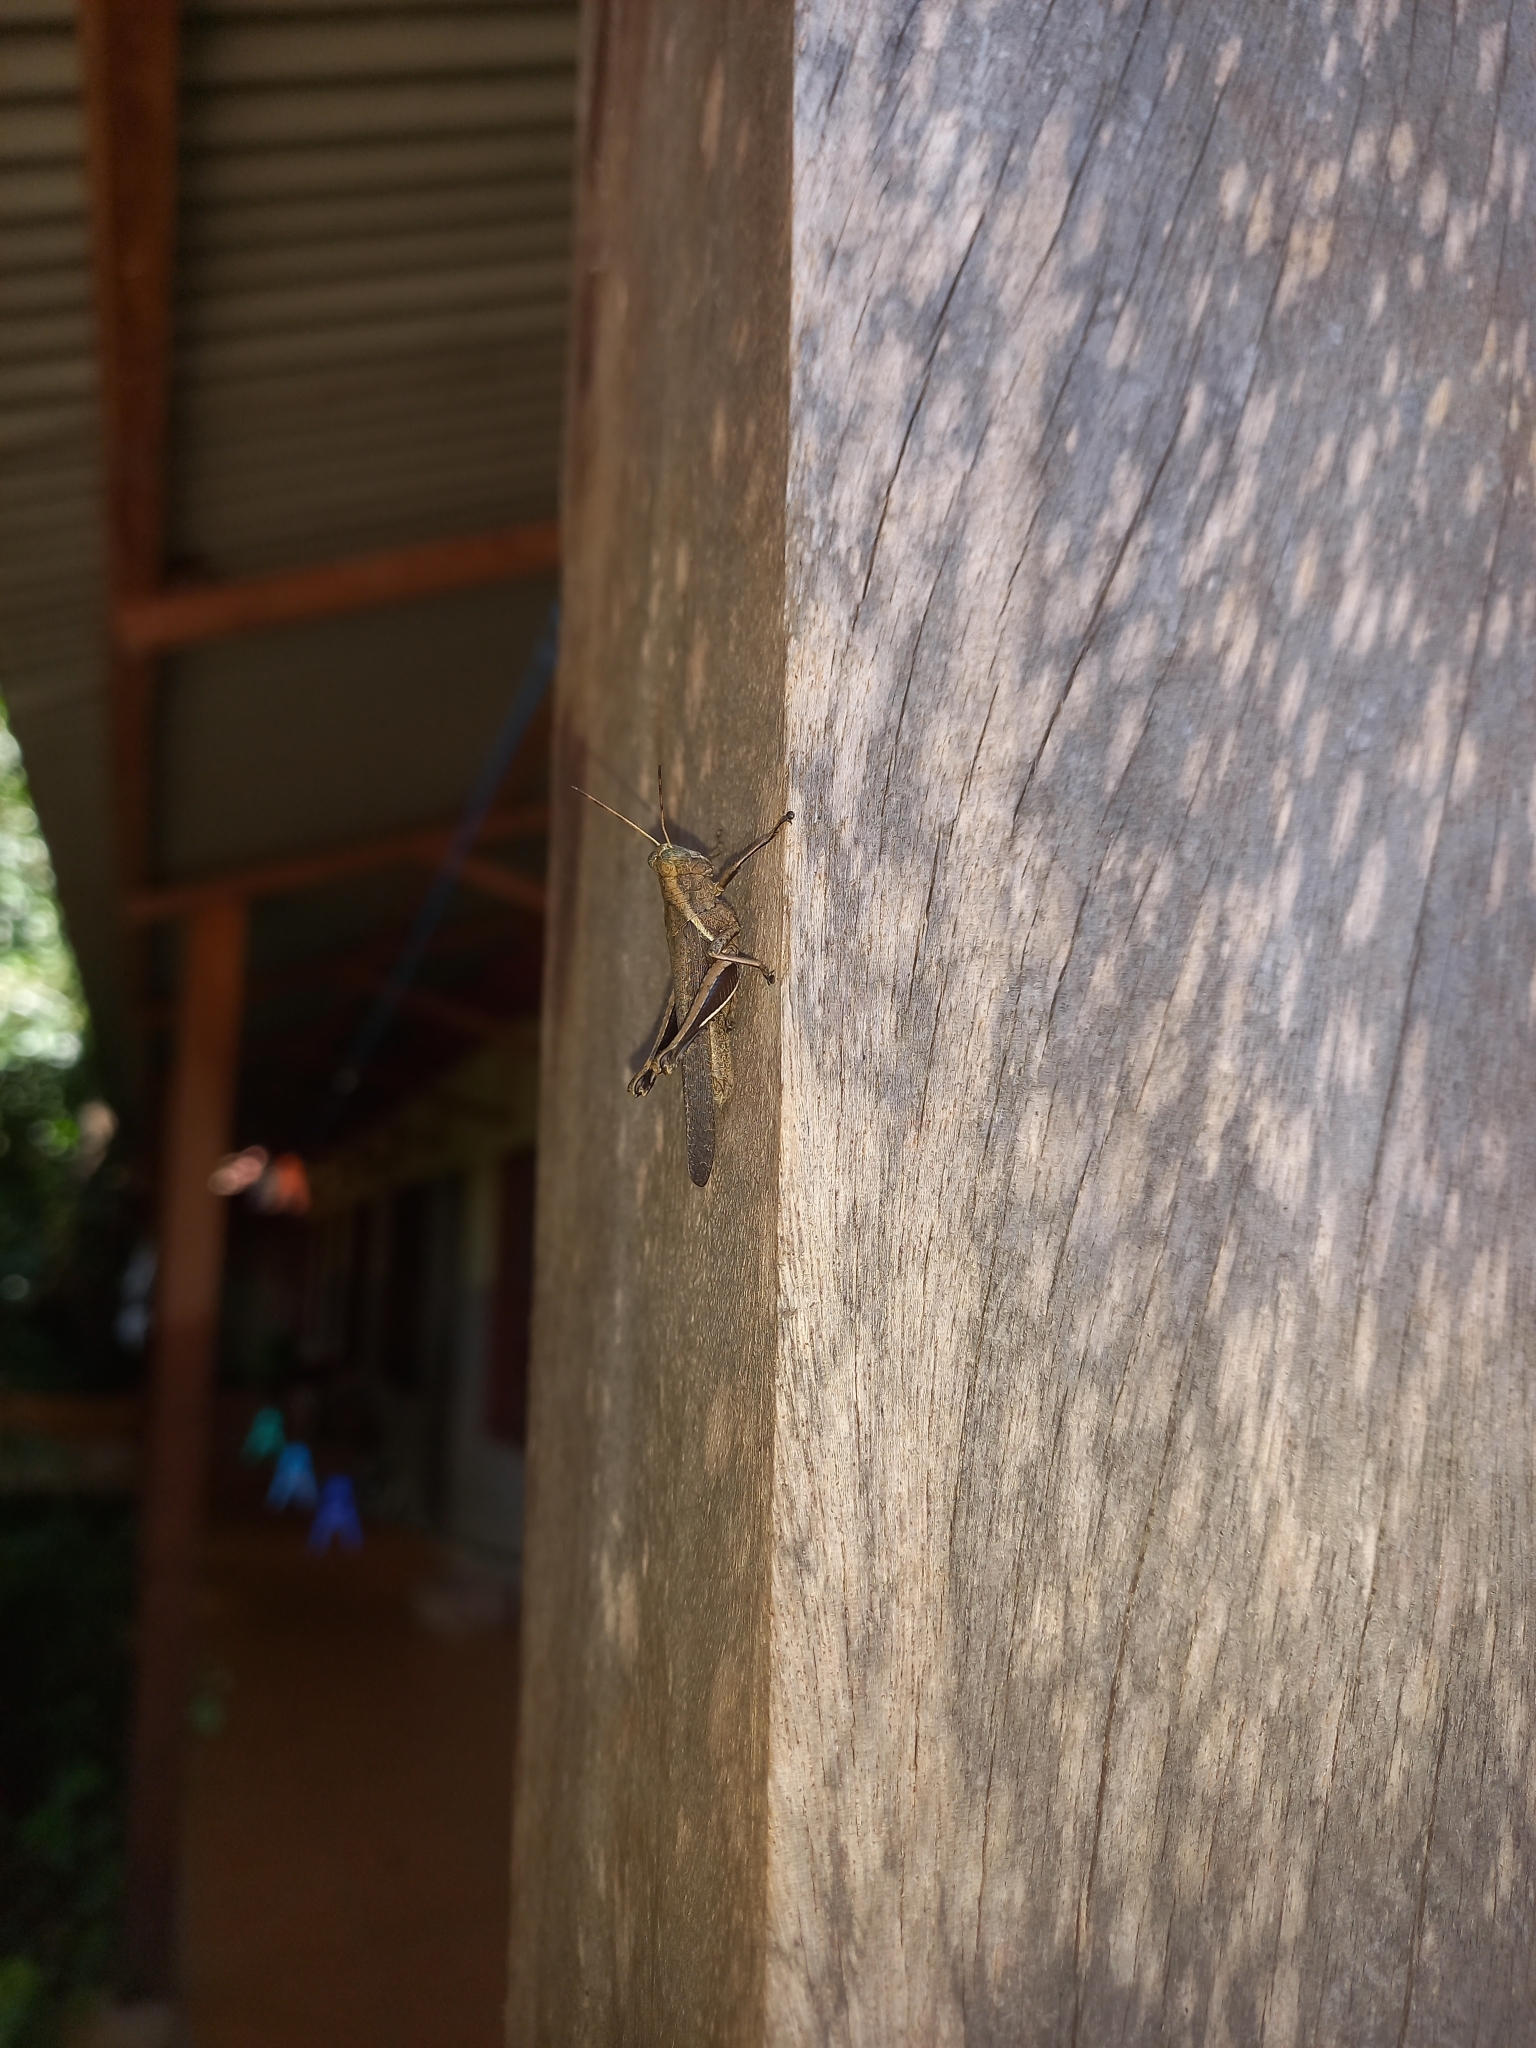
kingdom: Animalia
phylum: Arthropoda
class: Insecta
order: Orthoptera
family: Acrididae
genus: Abracris
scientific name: Abracris flavolineata
